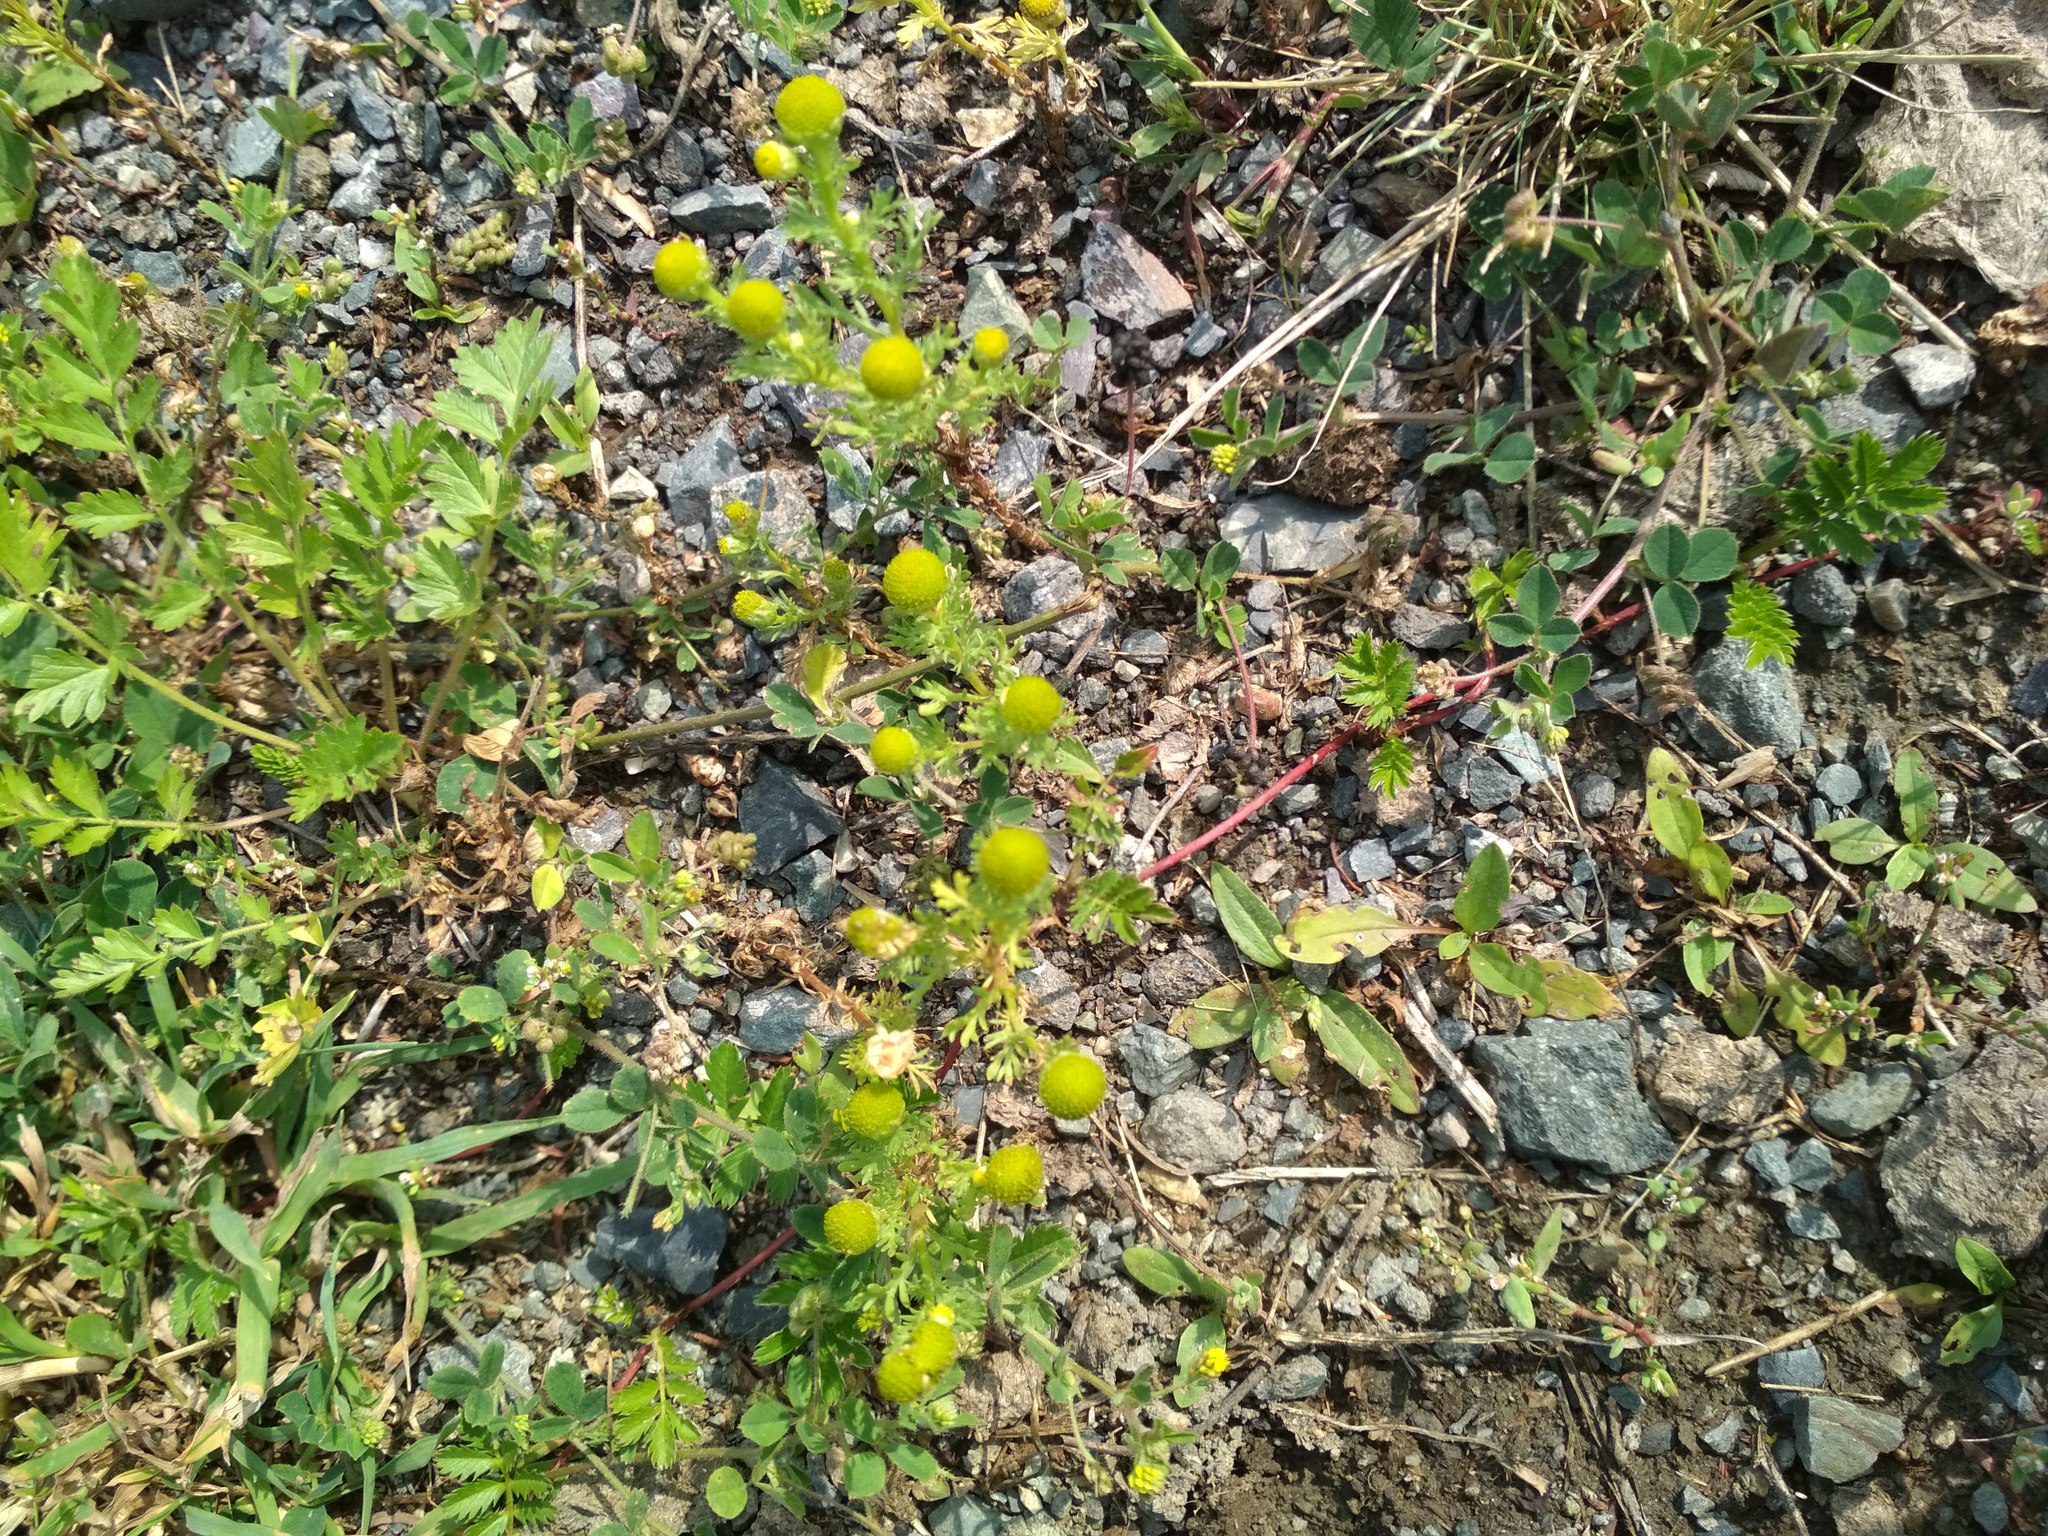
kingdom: Plantae
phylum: Tracheophyta
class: Magnoliopsida
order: Asterales
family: Asteraceae
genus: Matricaria
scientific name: Matricaria discoidea
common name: Disc mayweed
